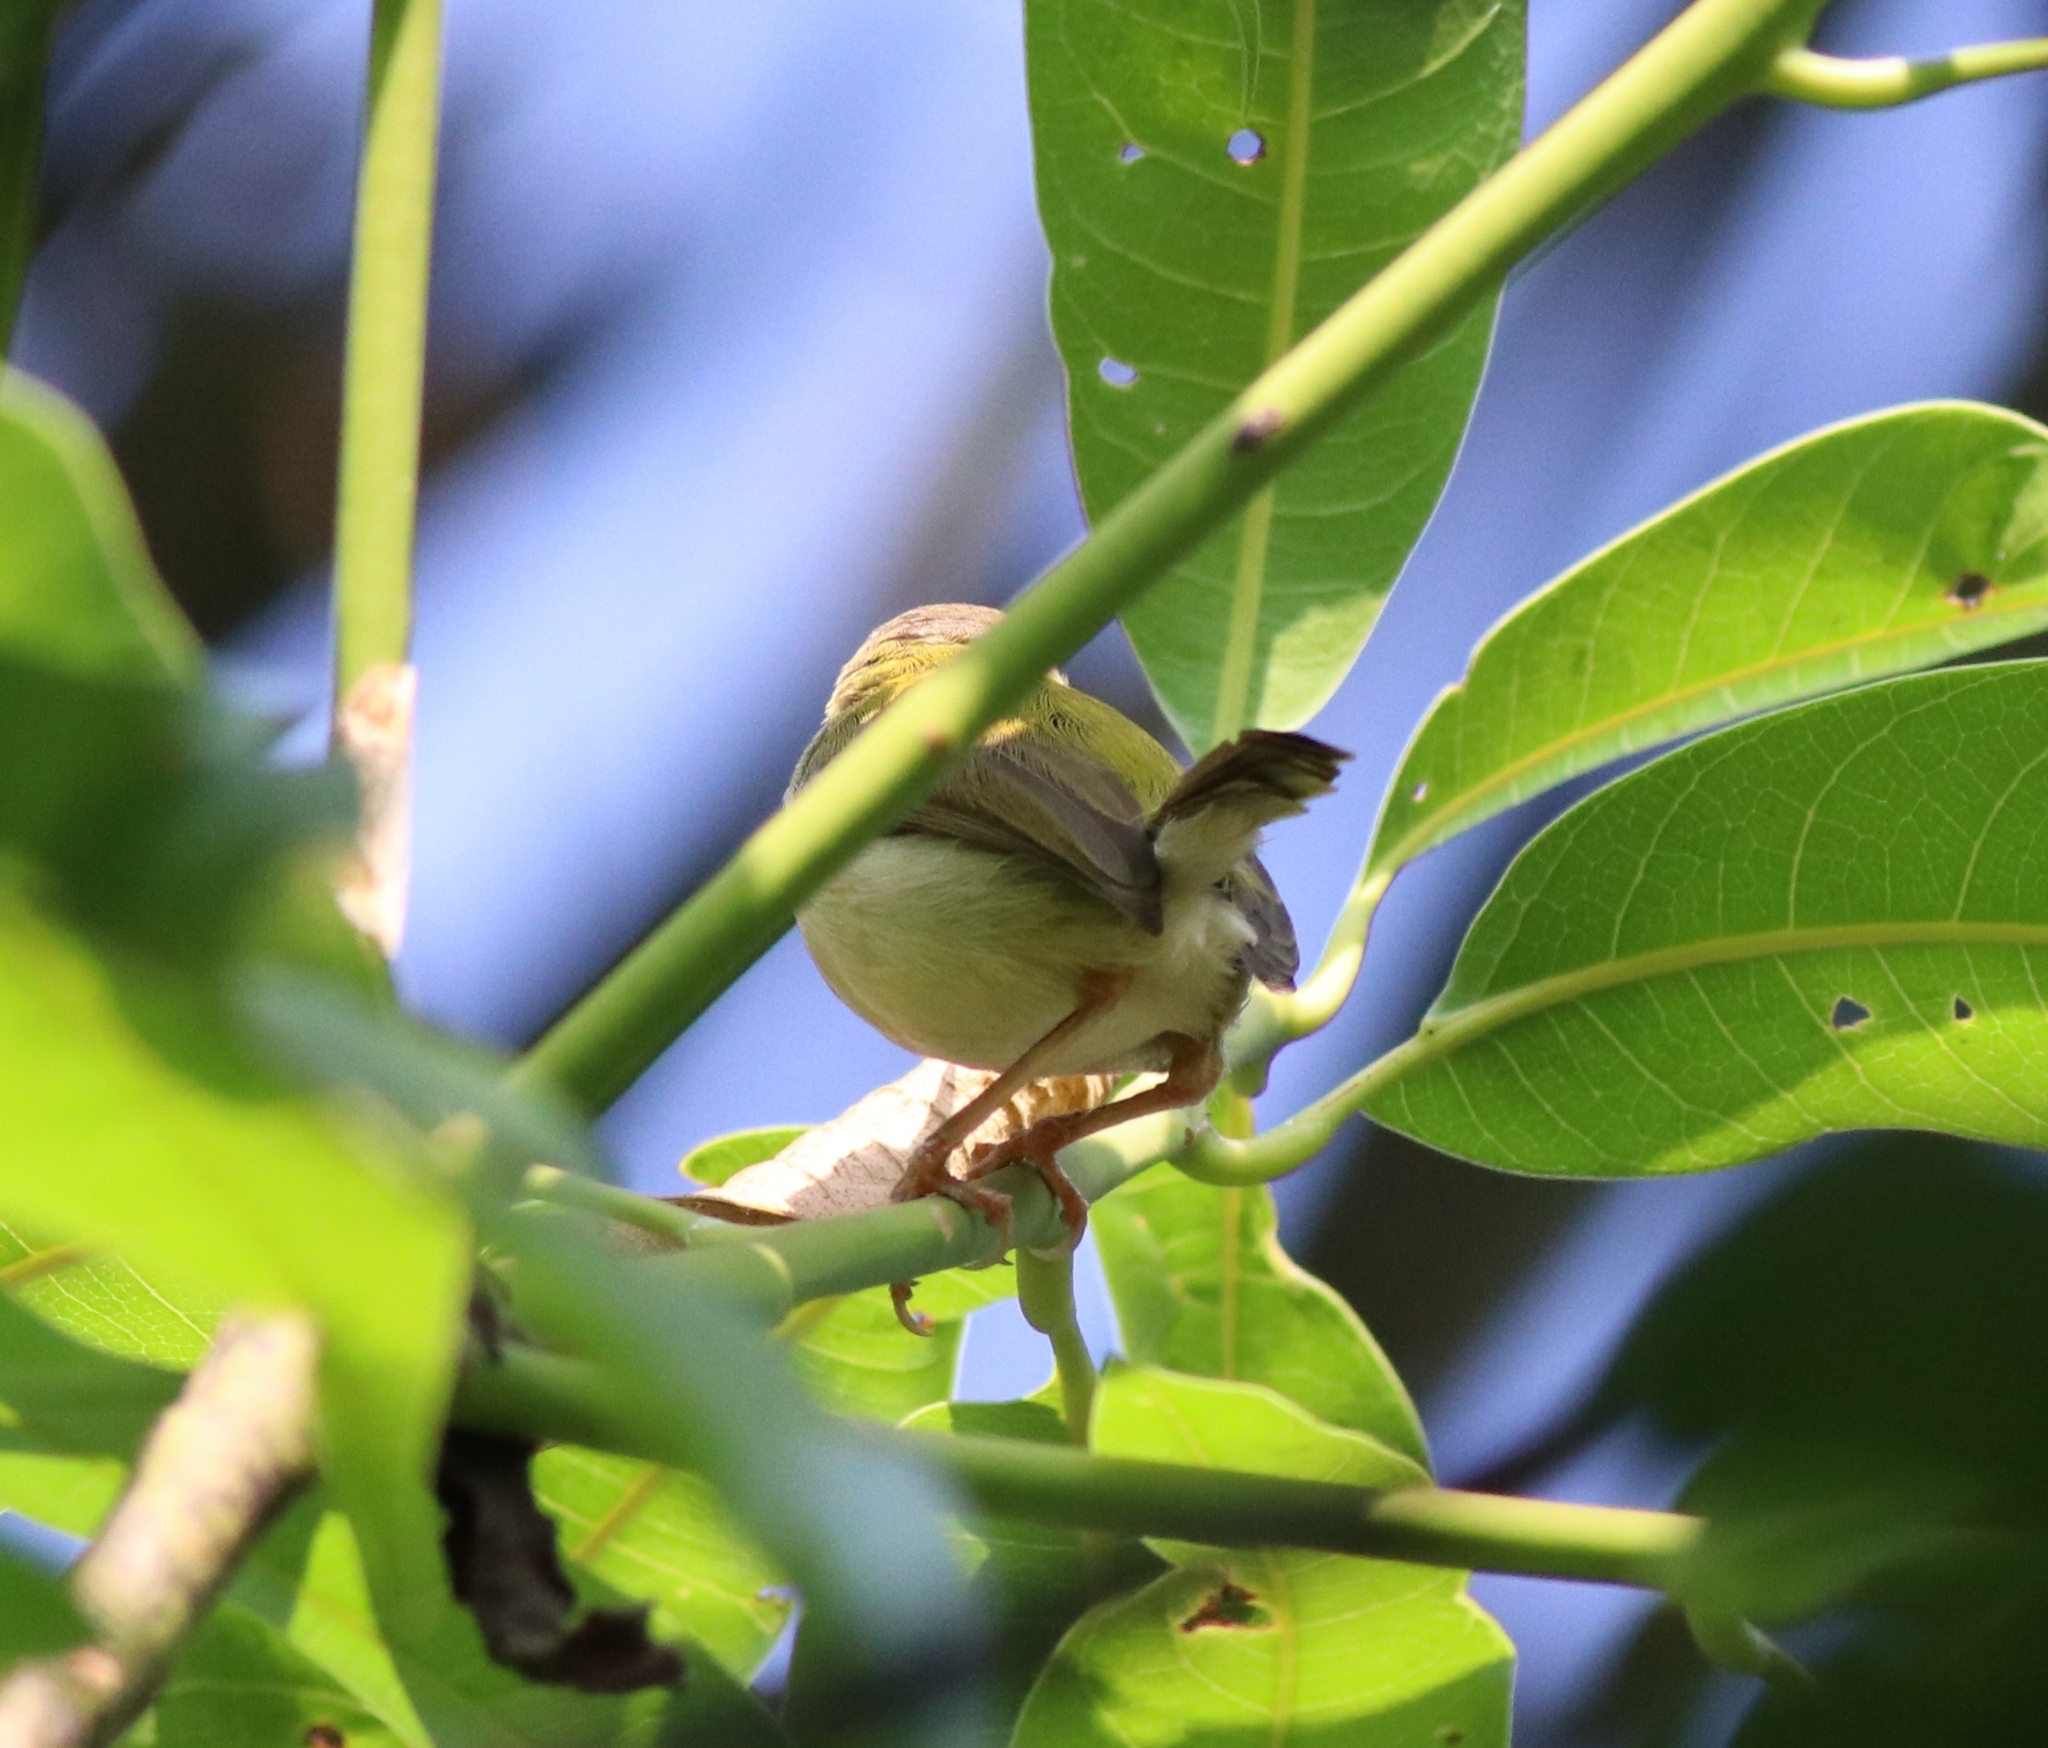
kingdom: Animalia
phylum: Chordata
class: Aves
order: Passeriformes
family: Cisticolidae
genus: Orthotomus
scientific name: Orthotomus sutorius
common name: Common tailorbird
